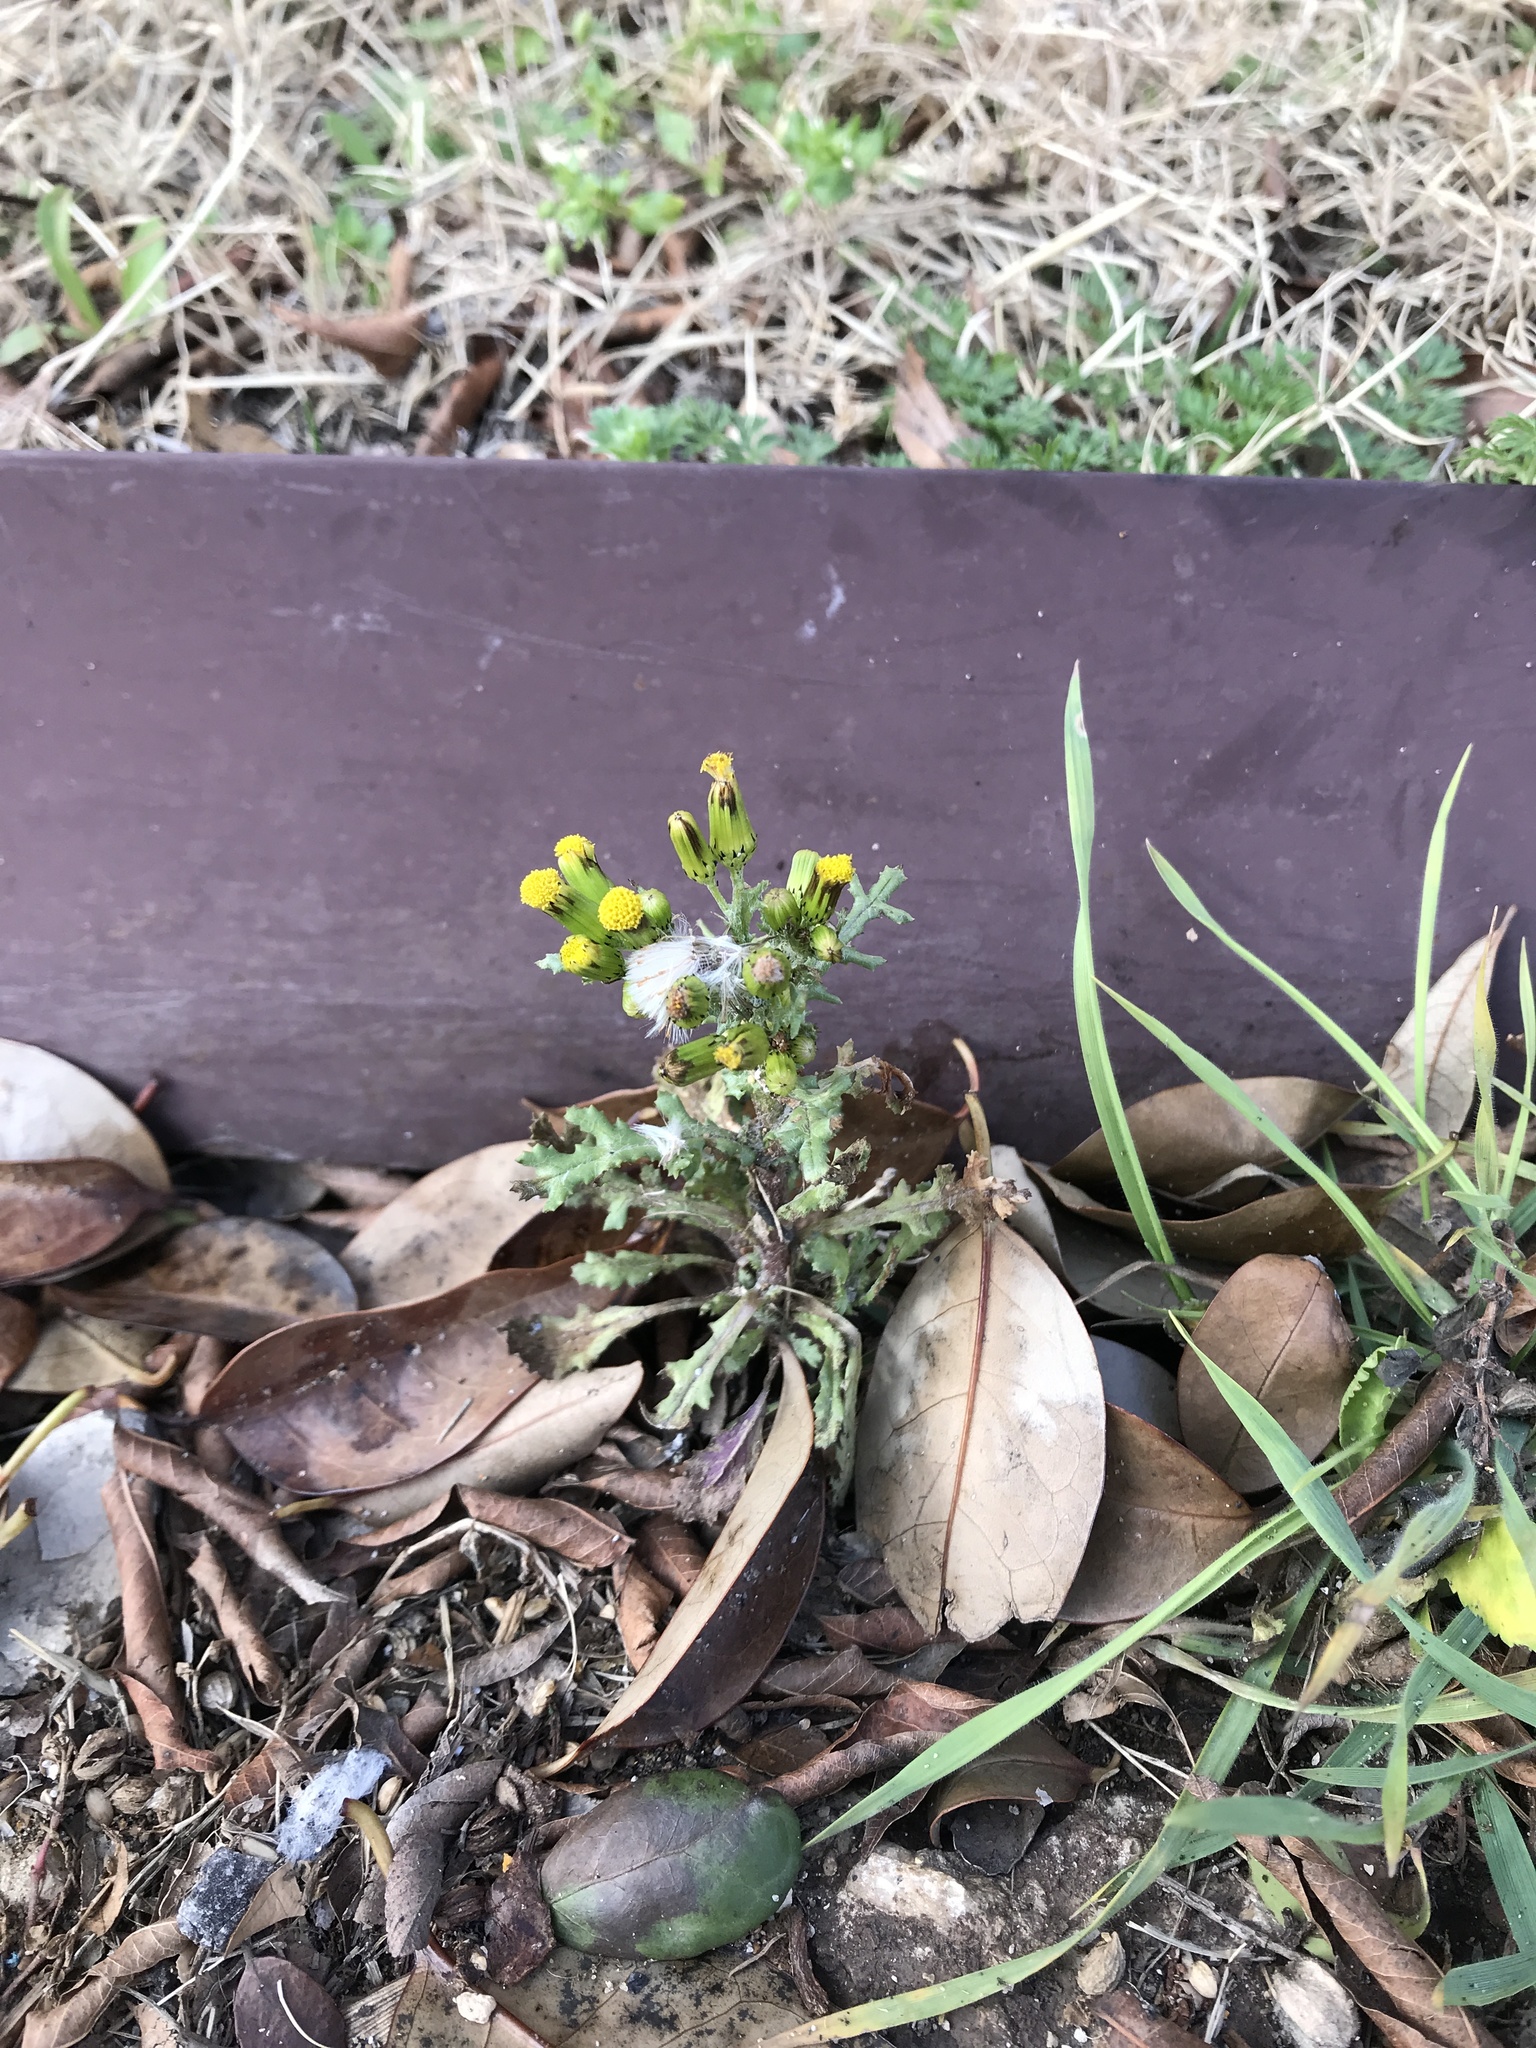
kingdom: Plantae
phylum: Tracheophyta
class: Magnoliopsida
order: Asterales
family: Asteraceae
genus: Senecio
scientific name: Senecio vulgaris
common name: Old-man-in-the-spring
